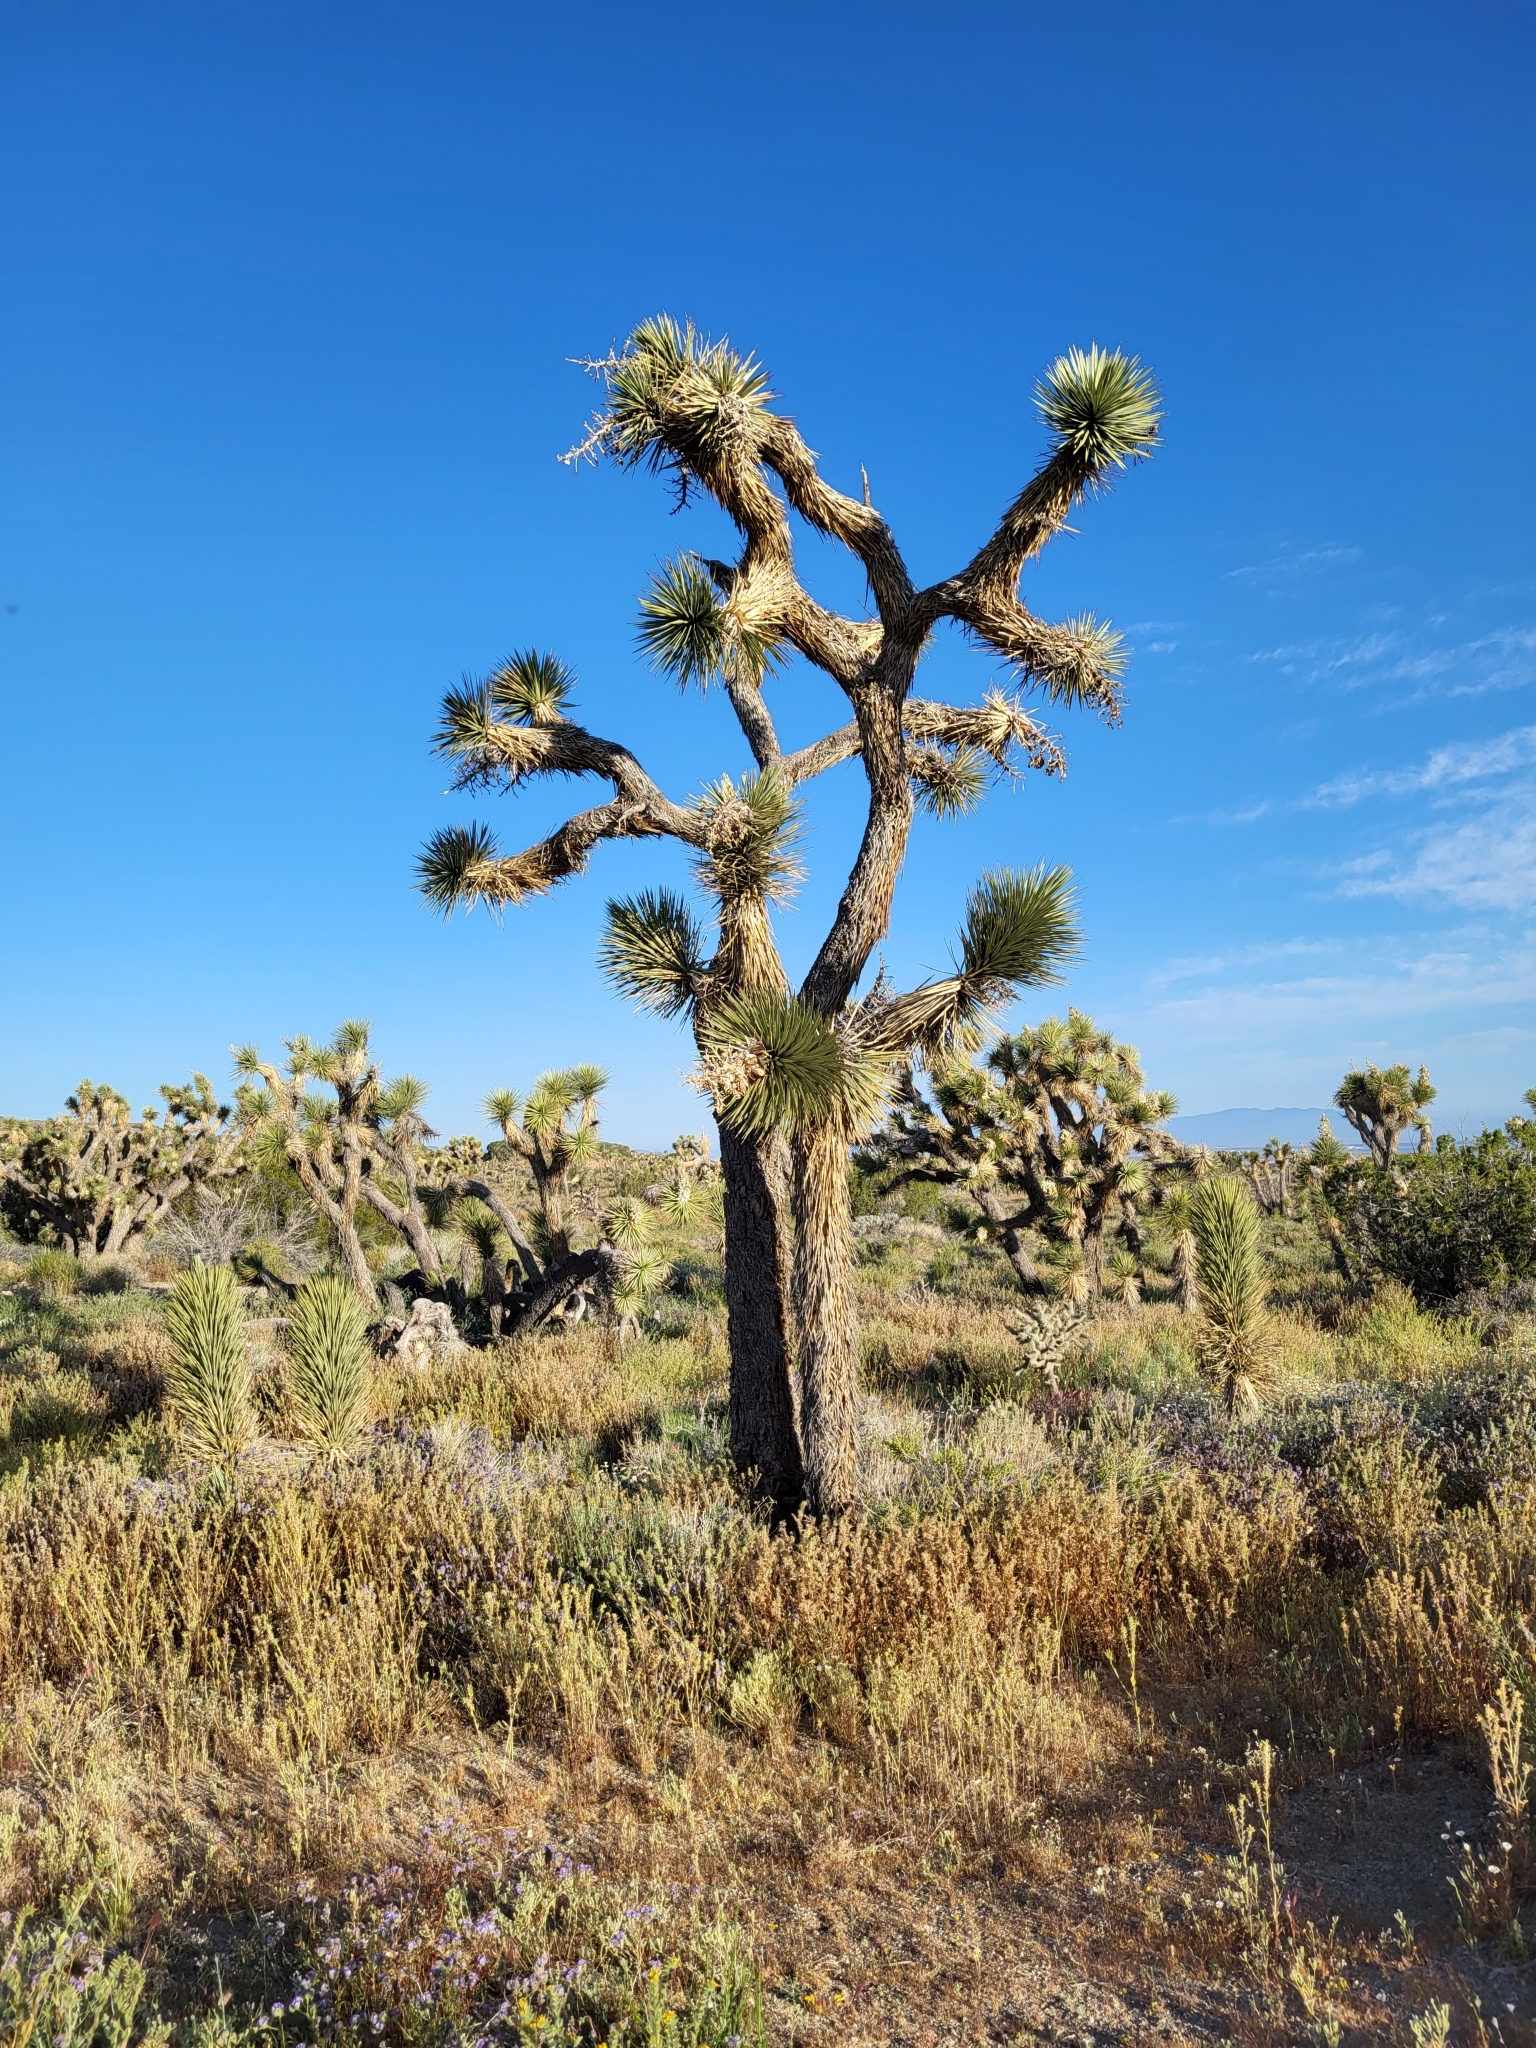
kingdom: Plantae
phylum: Tracheophyta
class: Liliopsida
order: Asparagales
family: Asparagaceae
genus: Yucca
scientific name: Yucca brevifolia
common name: Joshua tree
